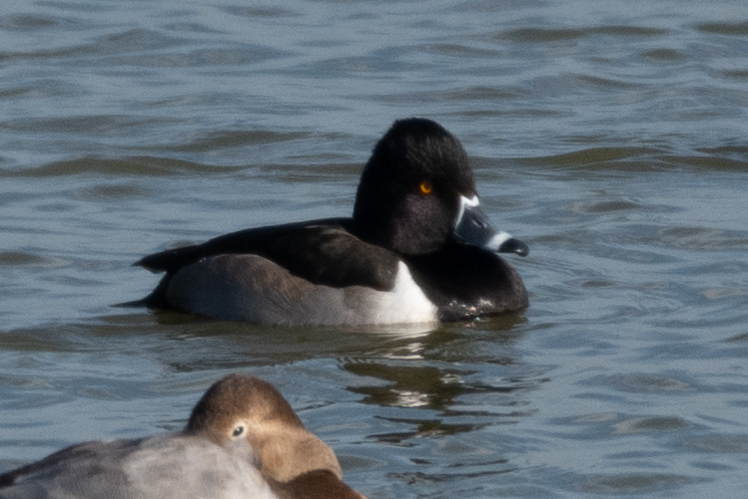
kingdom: Animalia
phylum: Chordata
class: Aves
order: Anseriformes
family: Anatidae
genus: Aythya
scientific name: Aythya collaris
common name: Ring-necked duck
